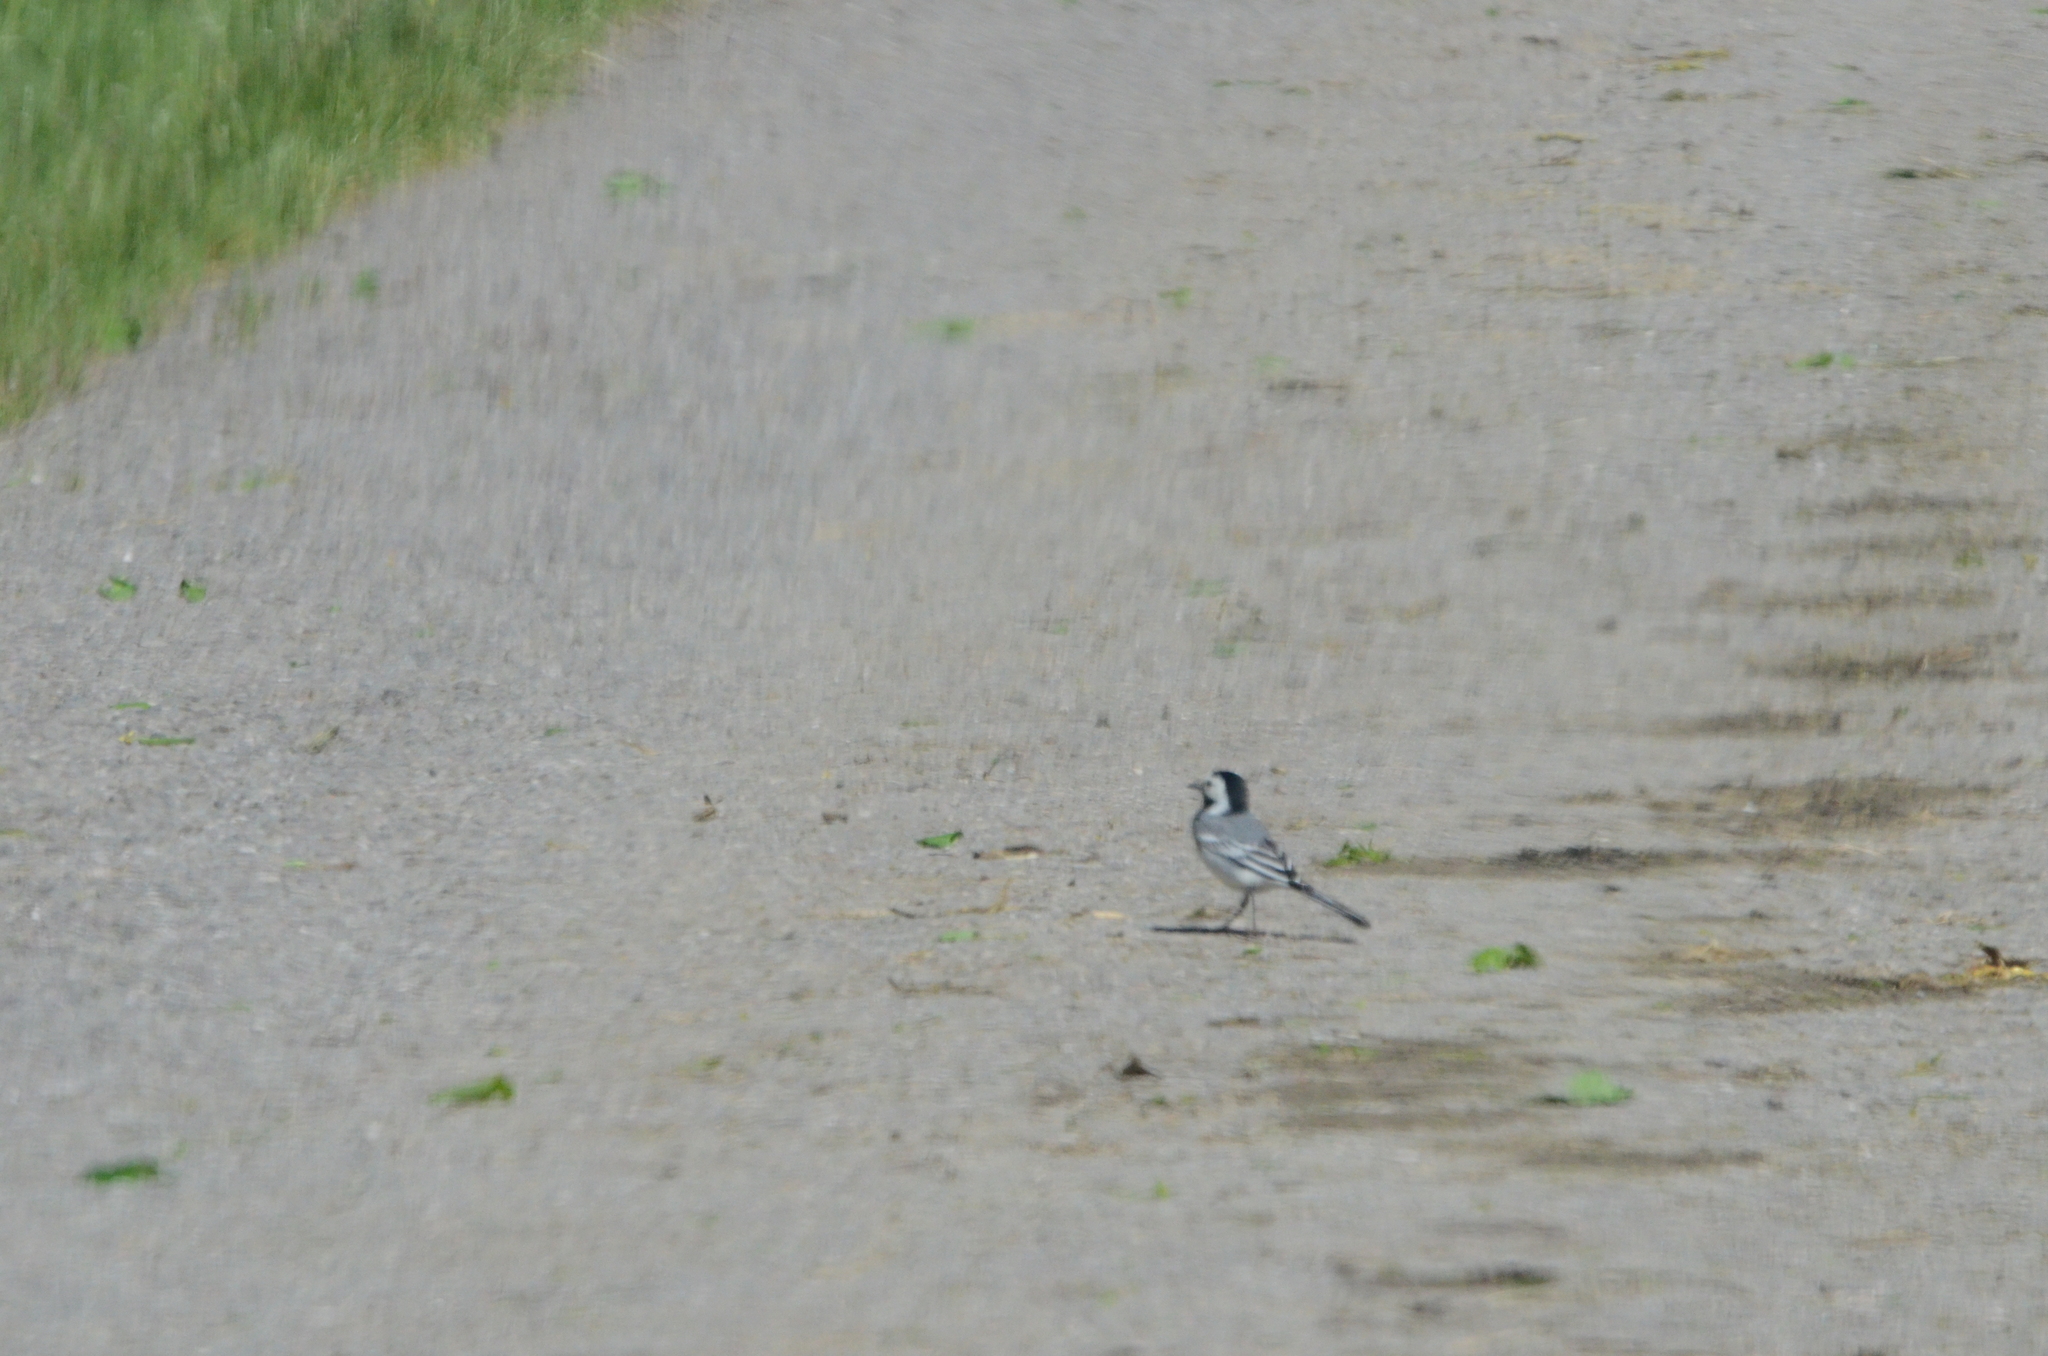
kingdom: Animalia
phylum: Chordata
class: Aves
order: Passeriformes
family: Motacillidae
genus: Motacilla
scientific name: Motacilla alba
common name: White wagtail
